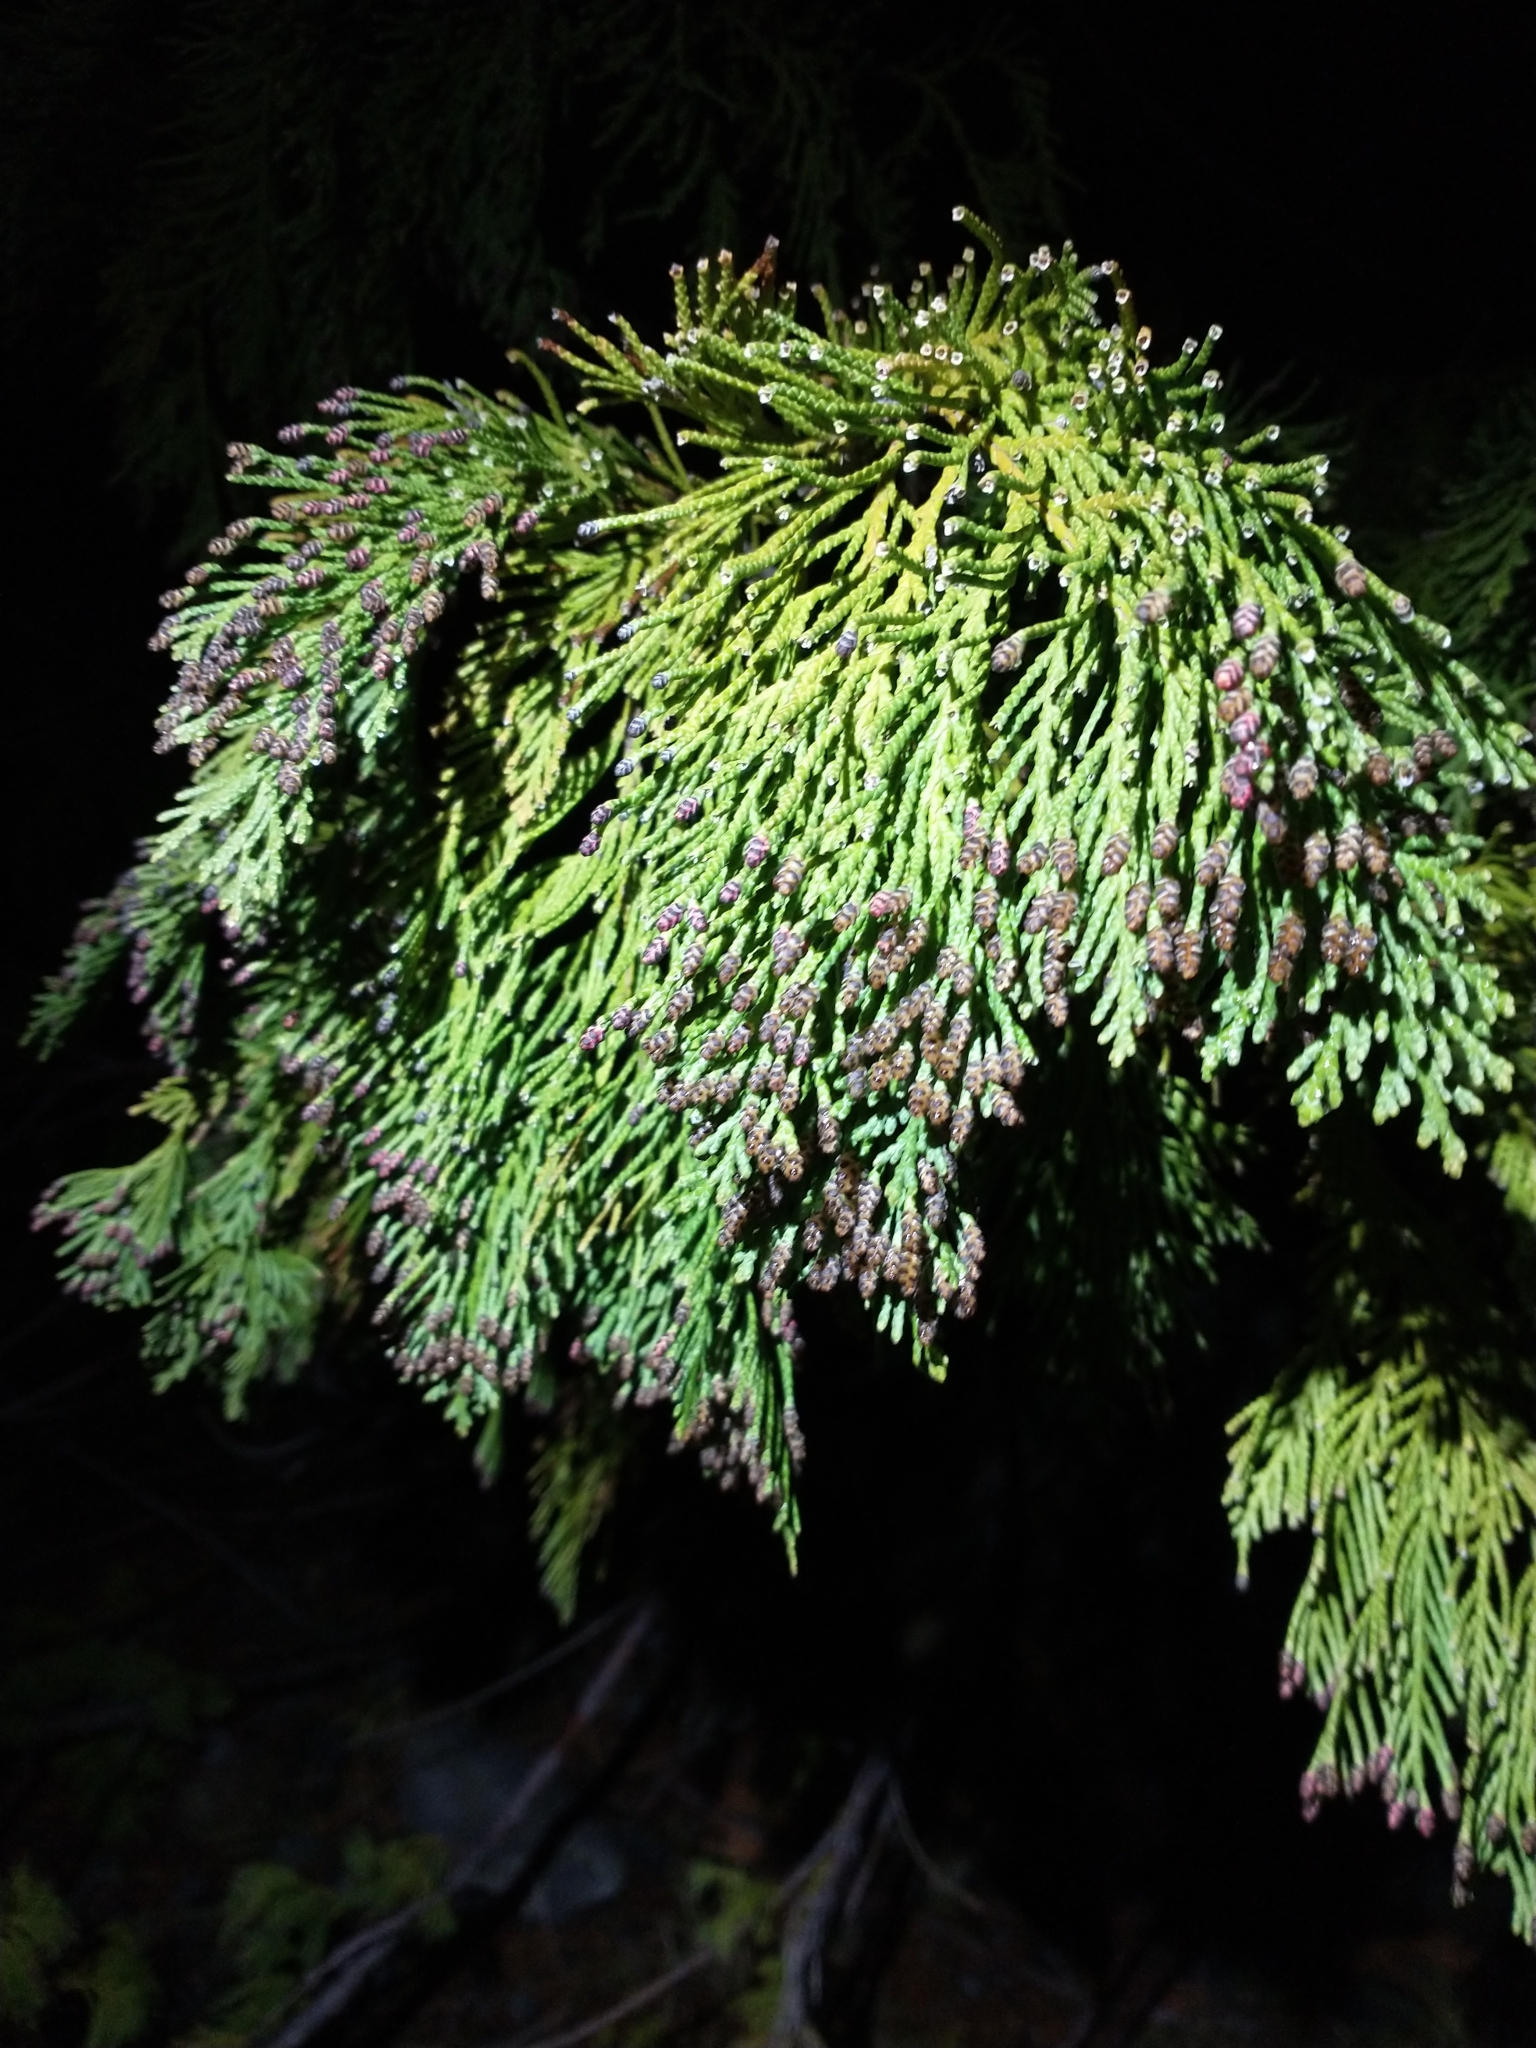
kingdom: Plantae
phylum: Tracheophyta
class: Pinopsida
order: Pinales
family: Cupressaceae
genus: Chamaecyparis
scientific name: Chamaecyparis lawsoniana
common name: Lawson's cypress
